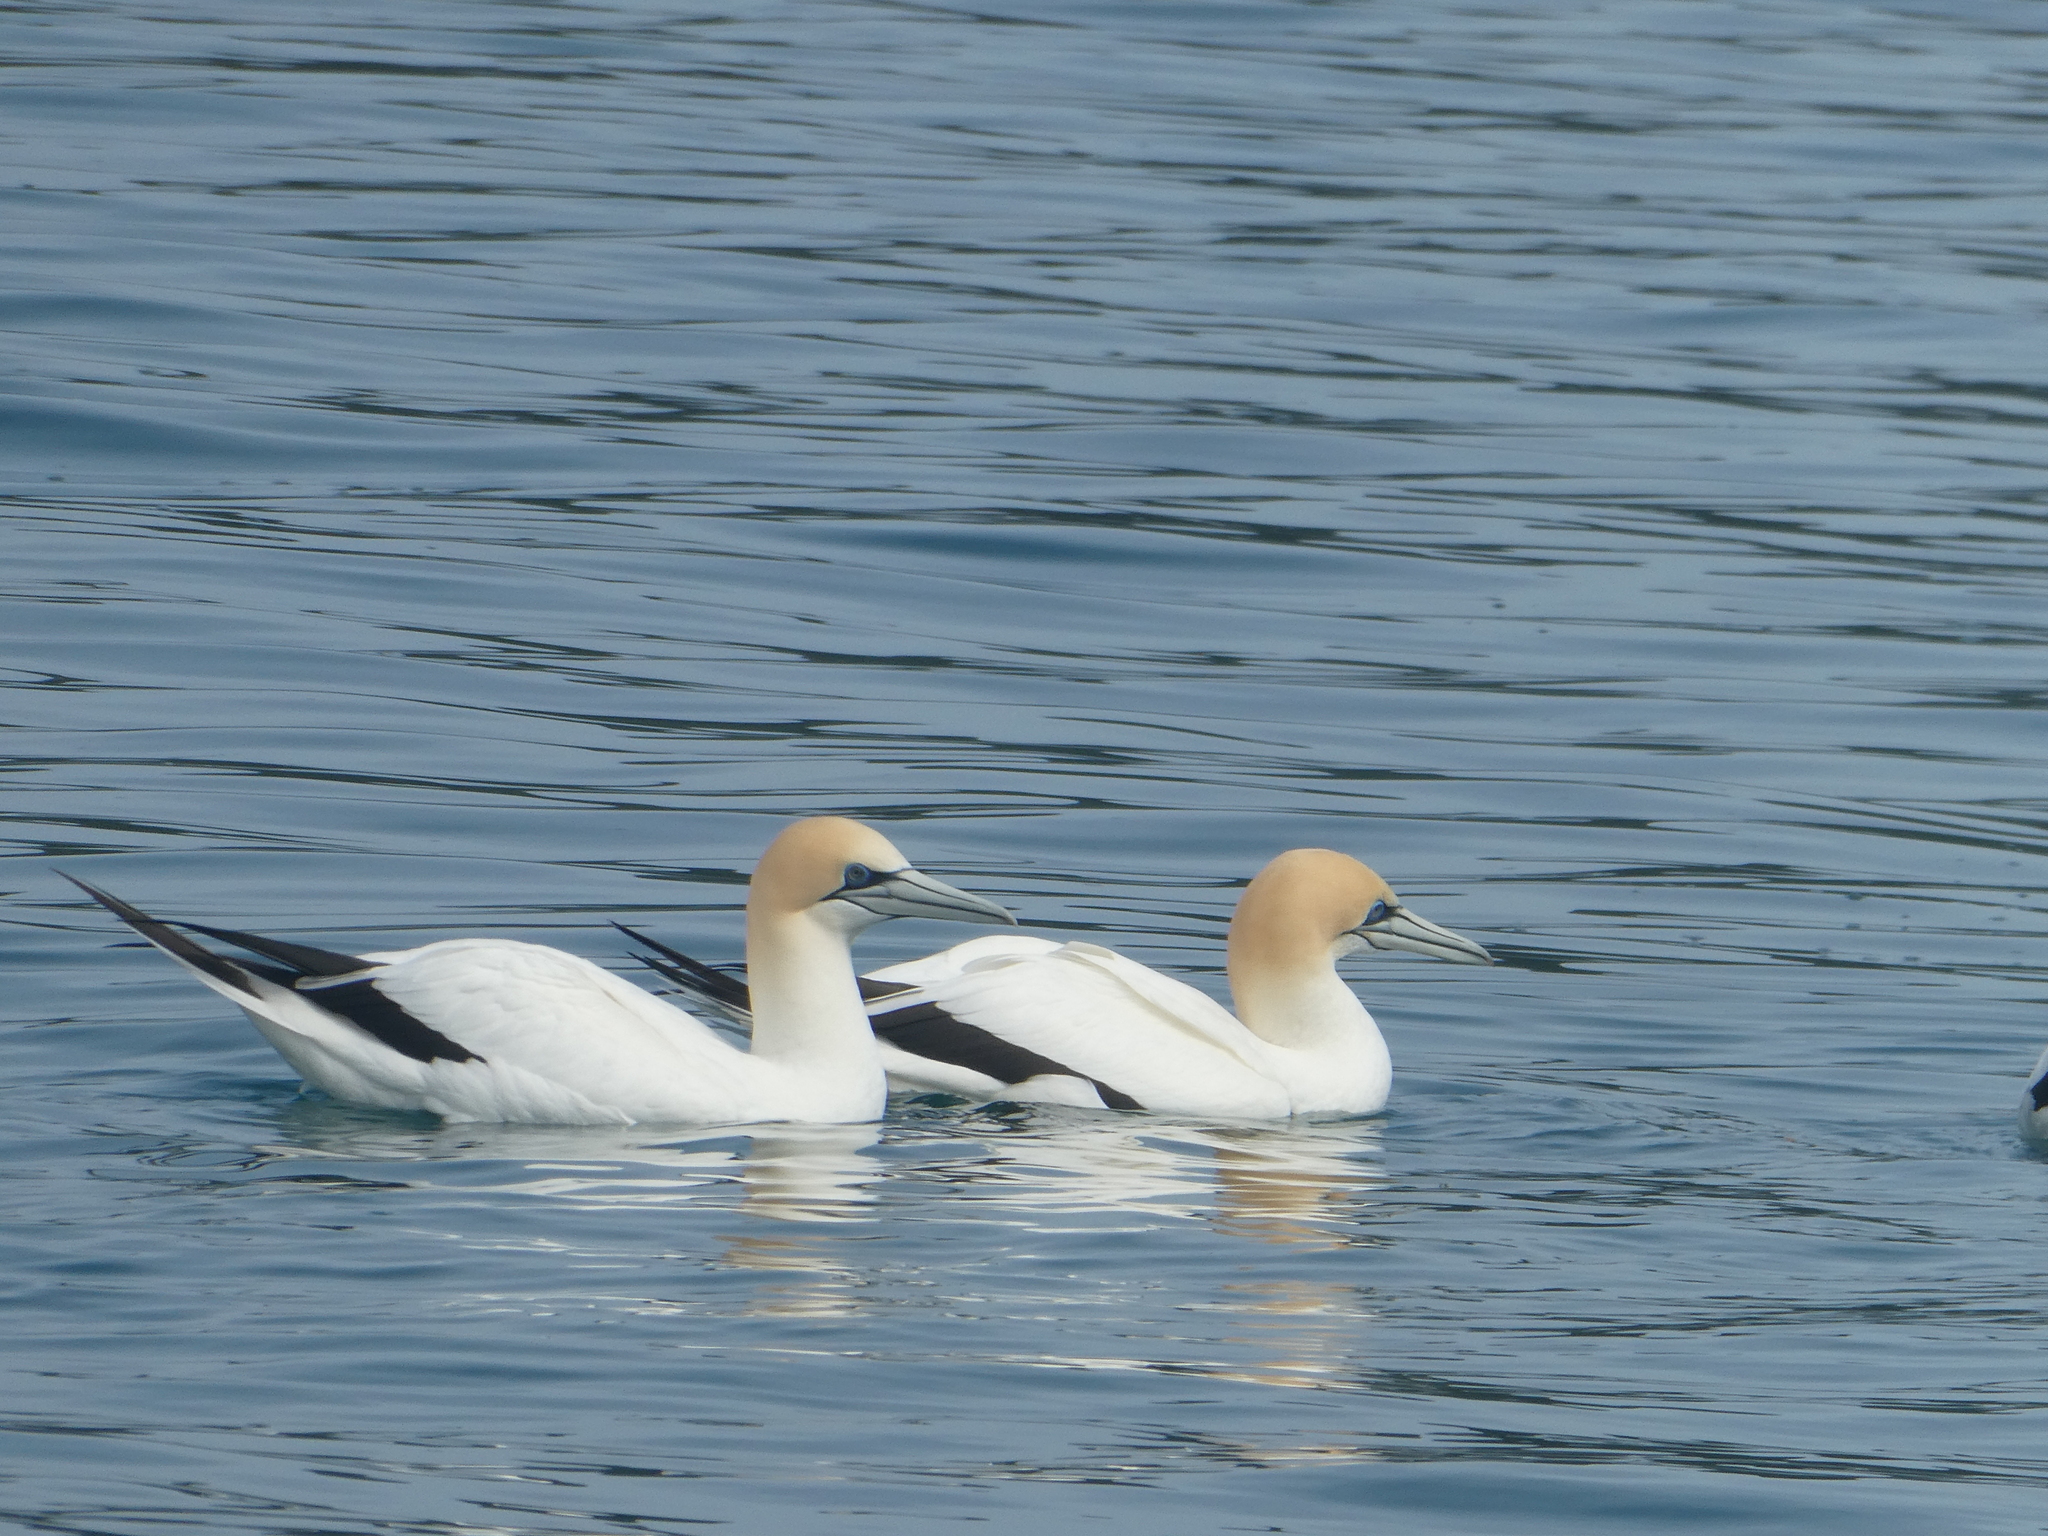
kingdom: Animalia
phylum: Chordata
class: Aves
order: Suliformes
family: Sulidae
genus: Morus
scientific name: Morus serrator
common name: Australasian gannet
